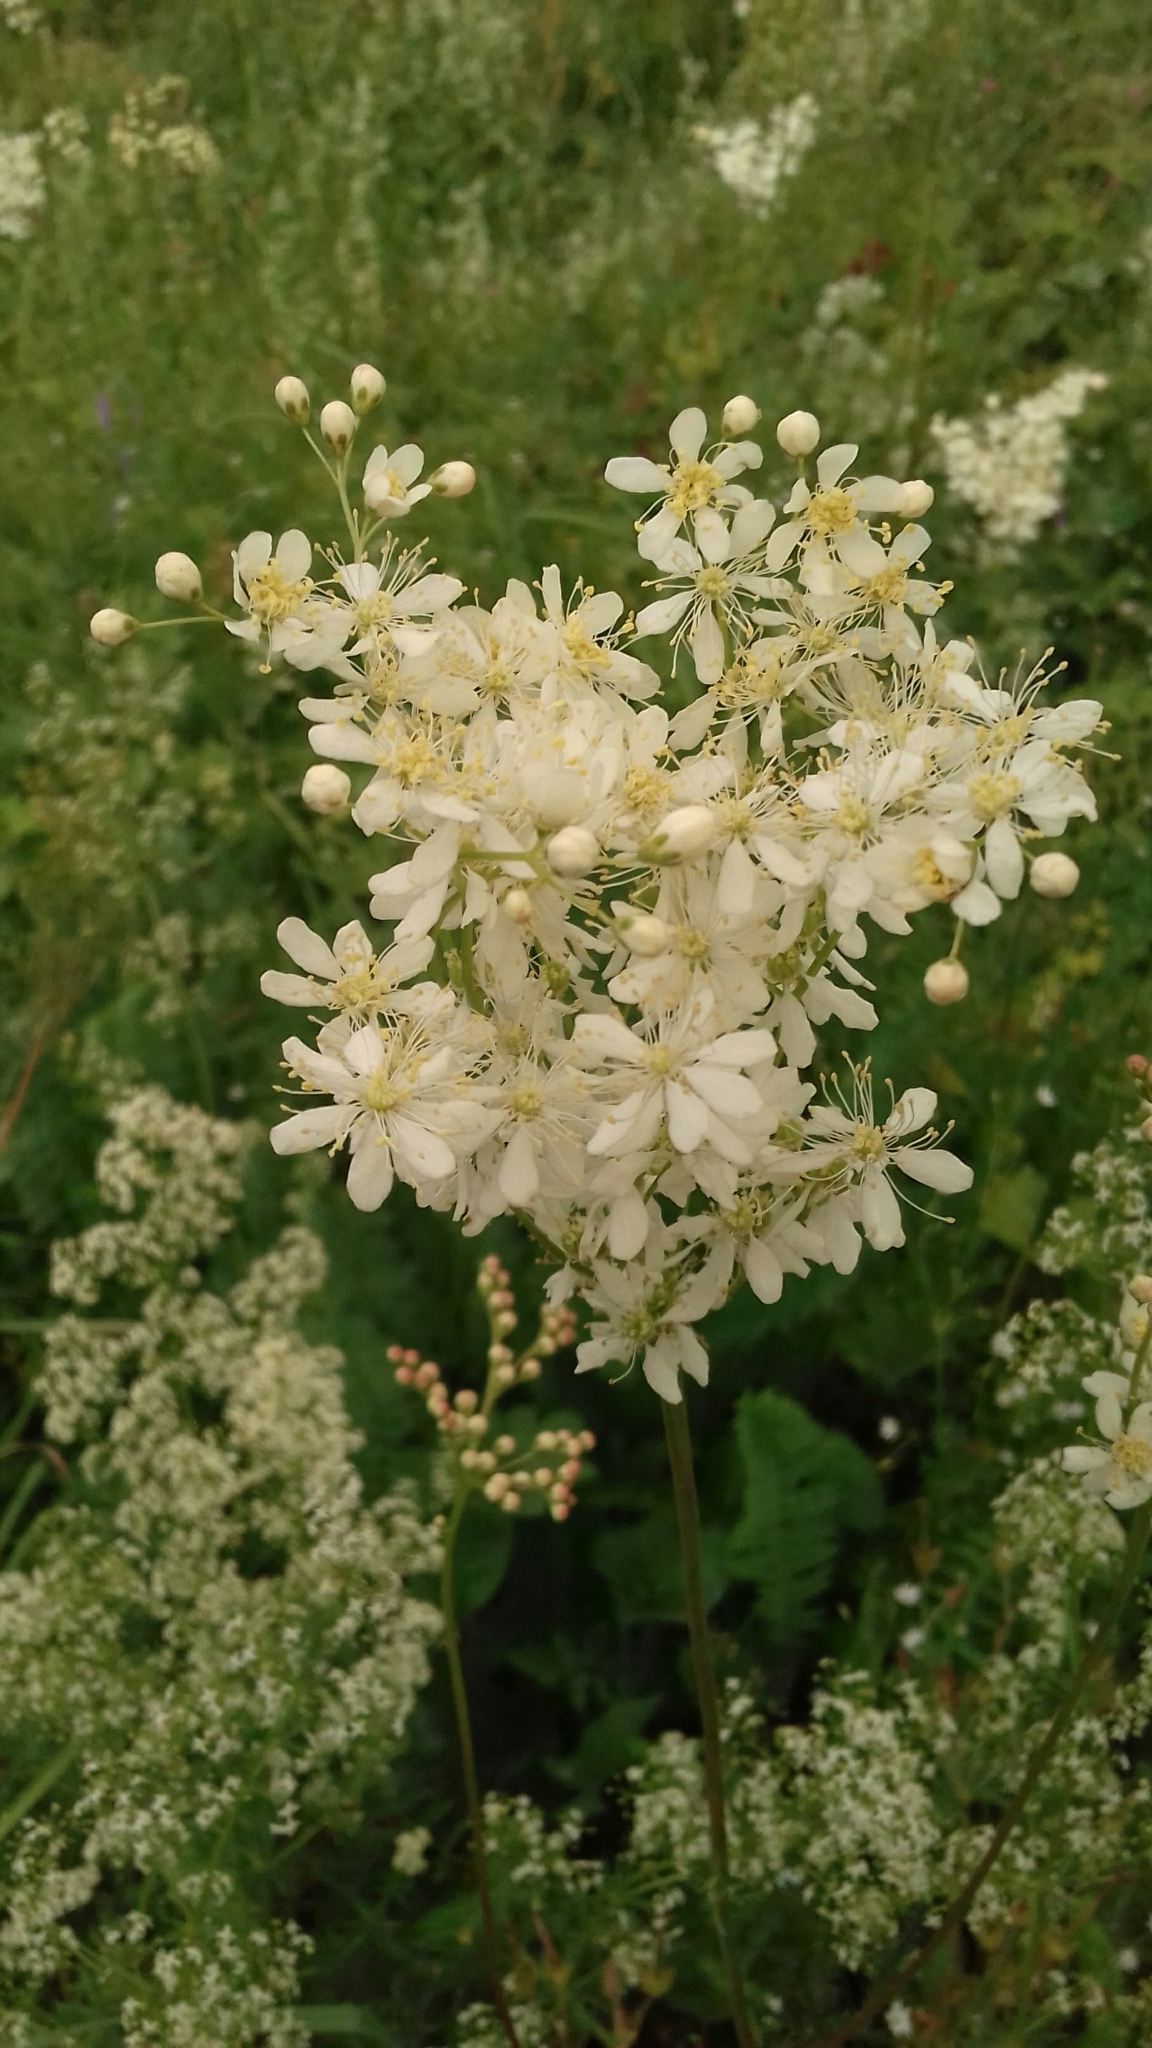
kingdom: Plantae
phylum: Tracheophyta
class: Magnoliopsida
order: Rosales
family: Rosaceae
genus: Filipendula
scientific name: Filipendula vulgaris
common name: Dropwort
